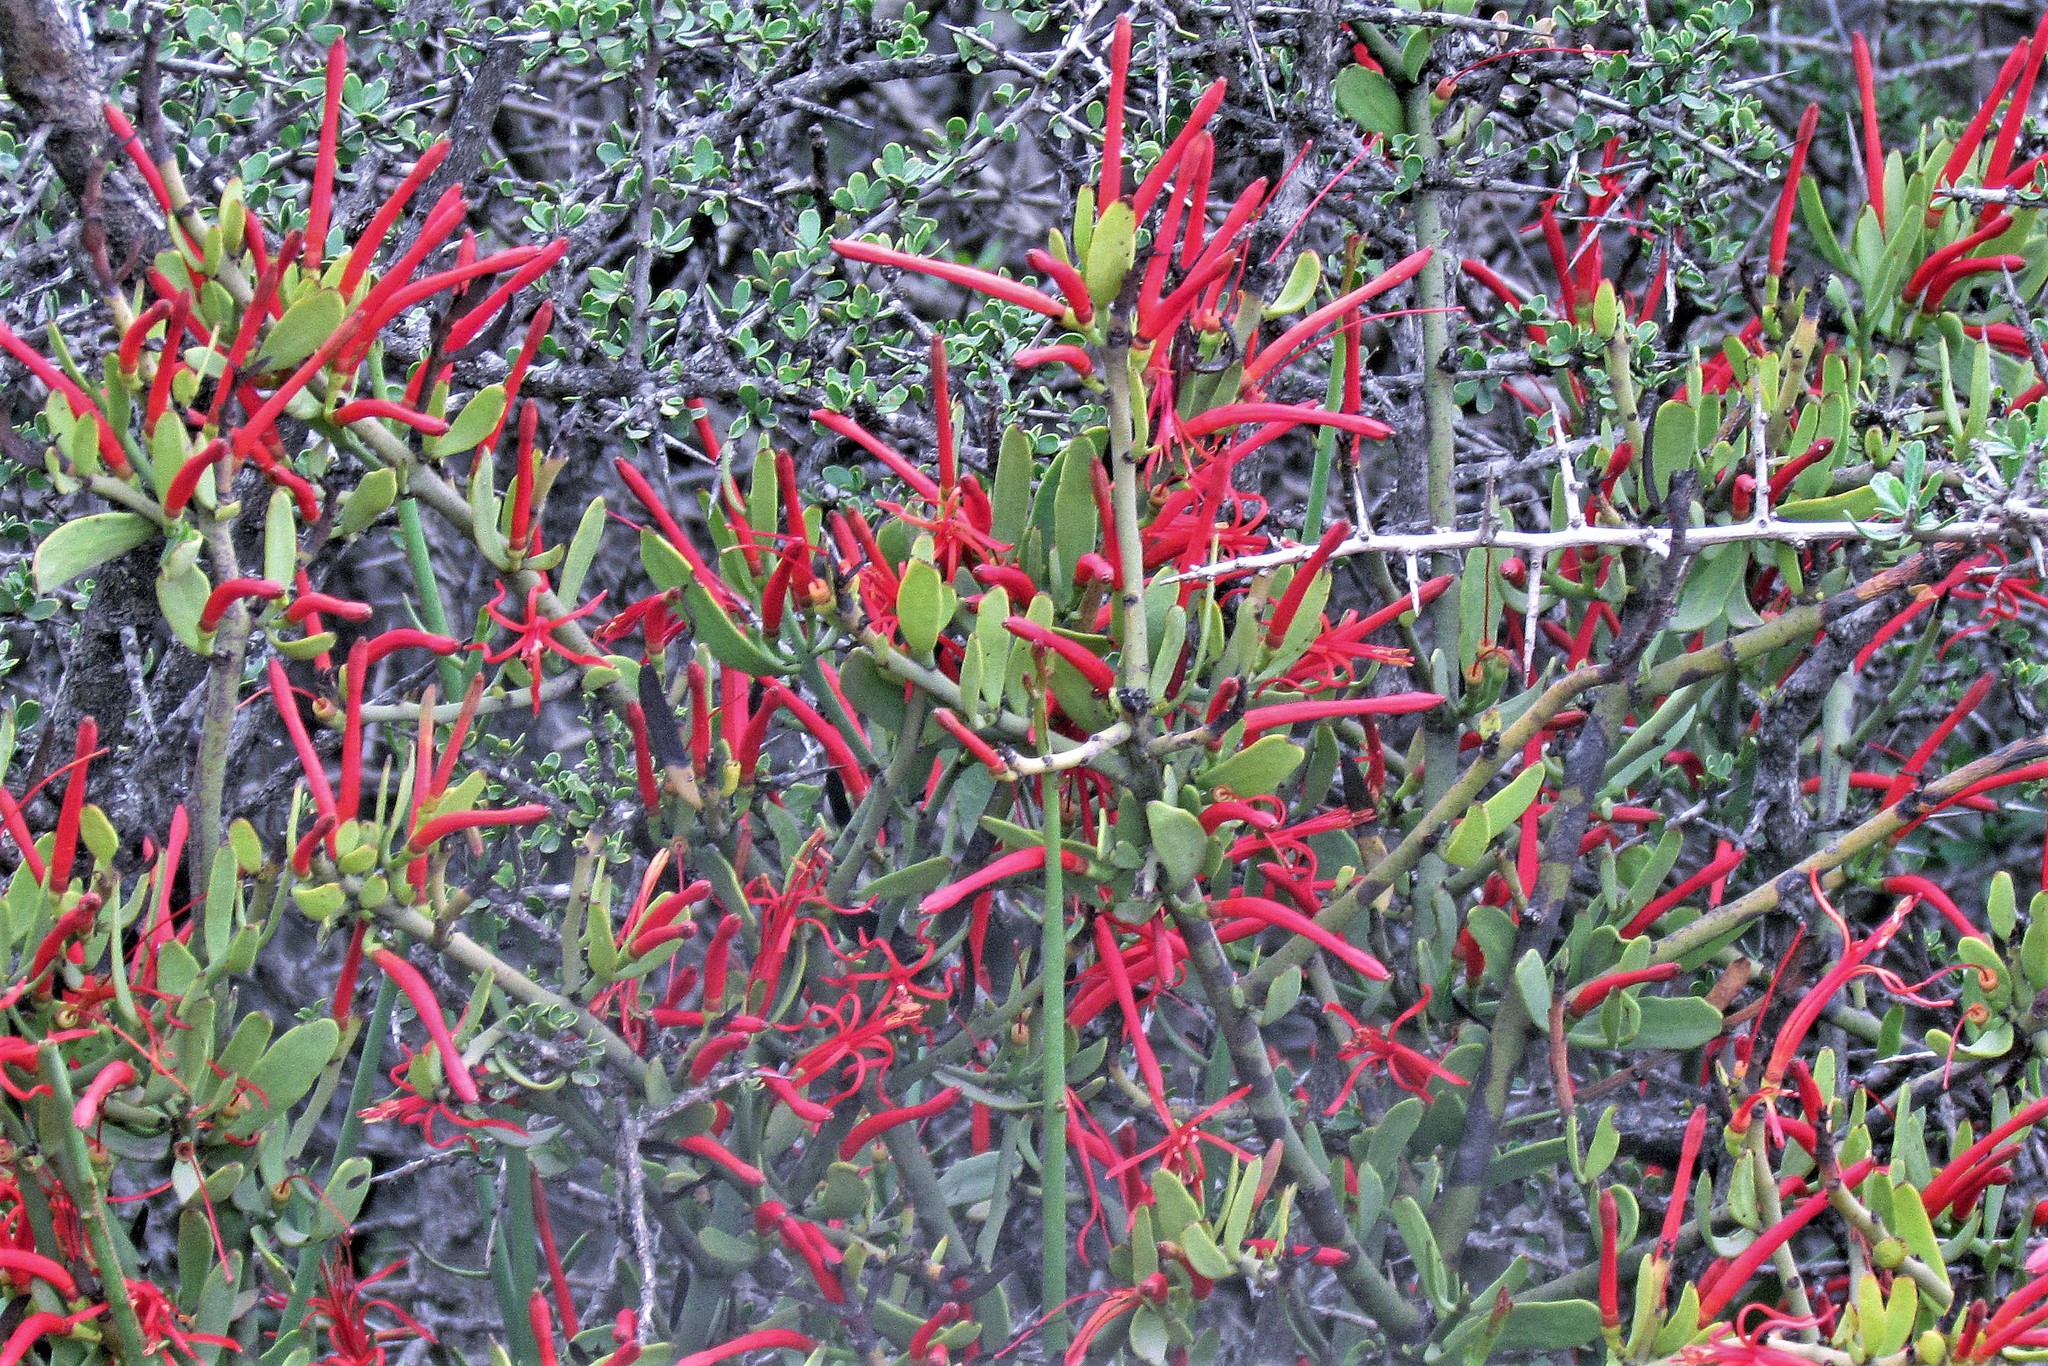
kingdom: Plantae
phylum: Tracheophyta
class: Magnoliopsida
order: Santalales
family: Loranthaceae
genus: Ligaria
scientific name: Ligaria cuneifolia
